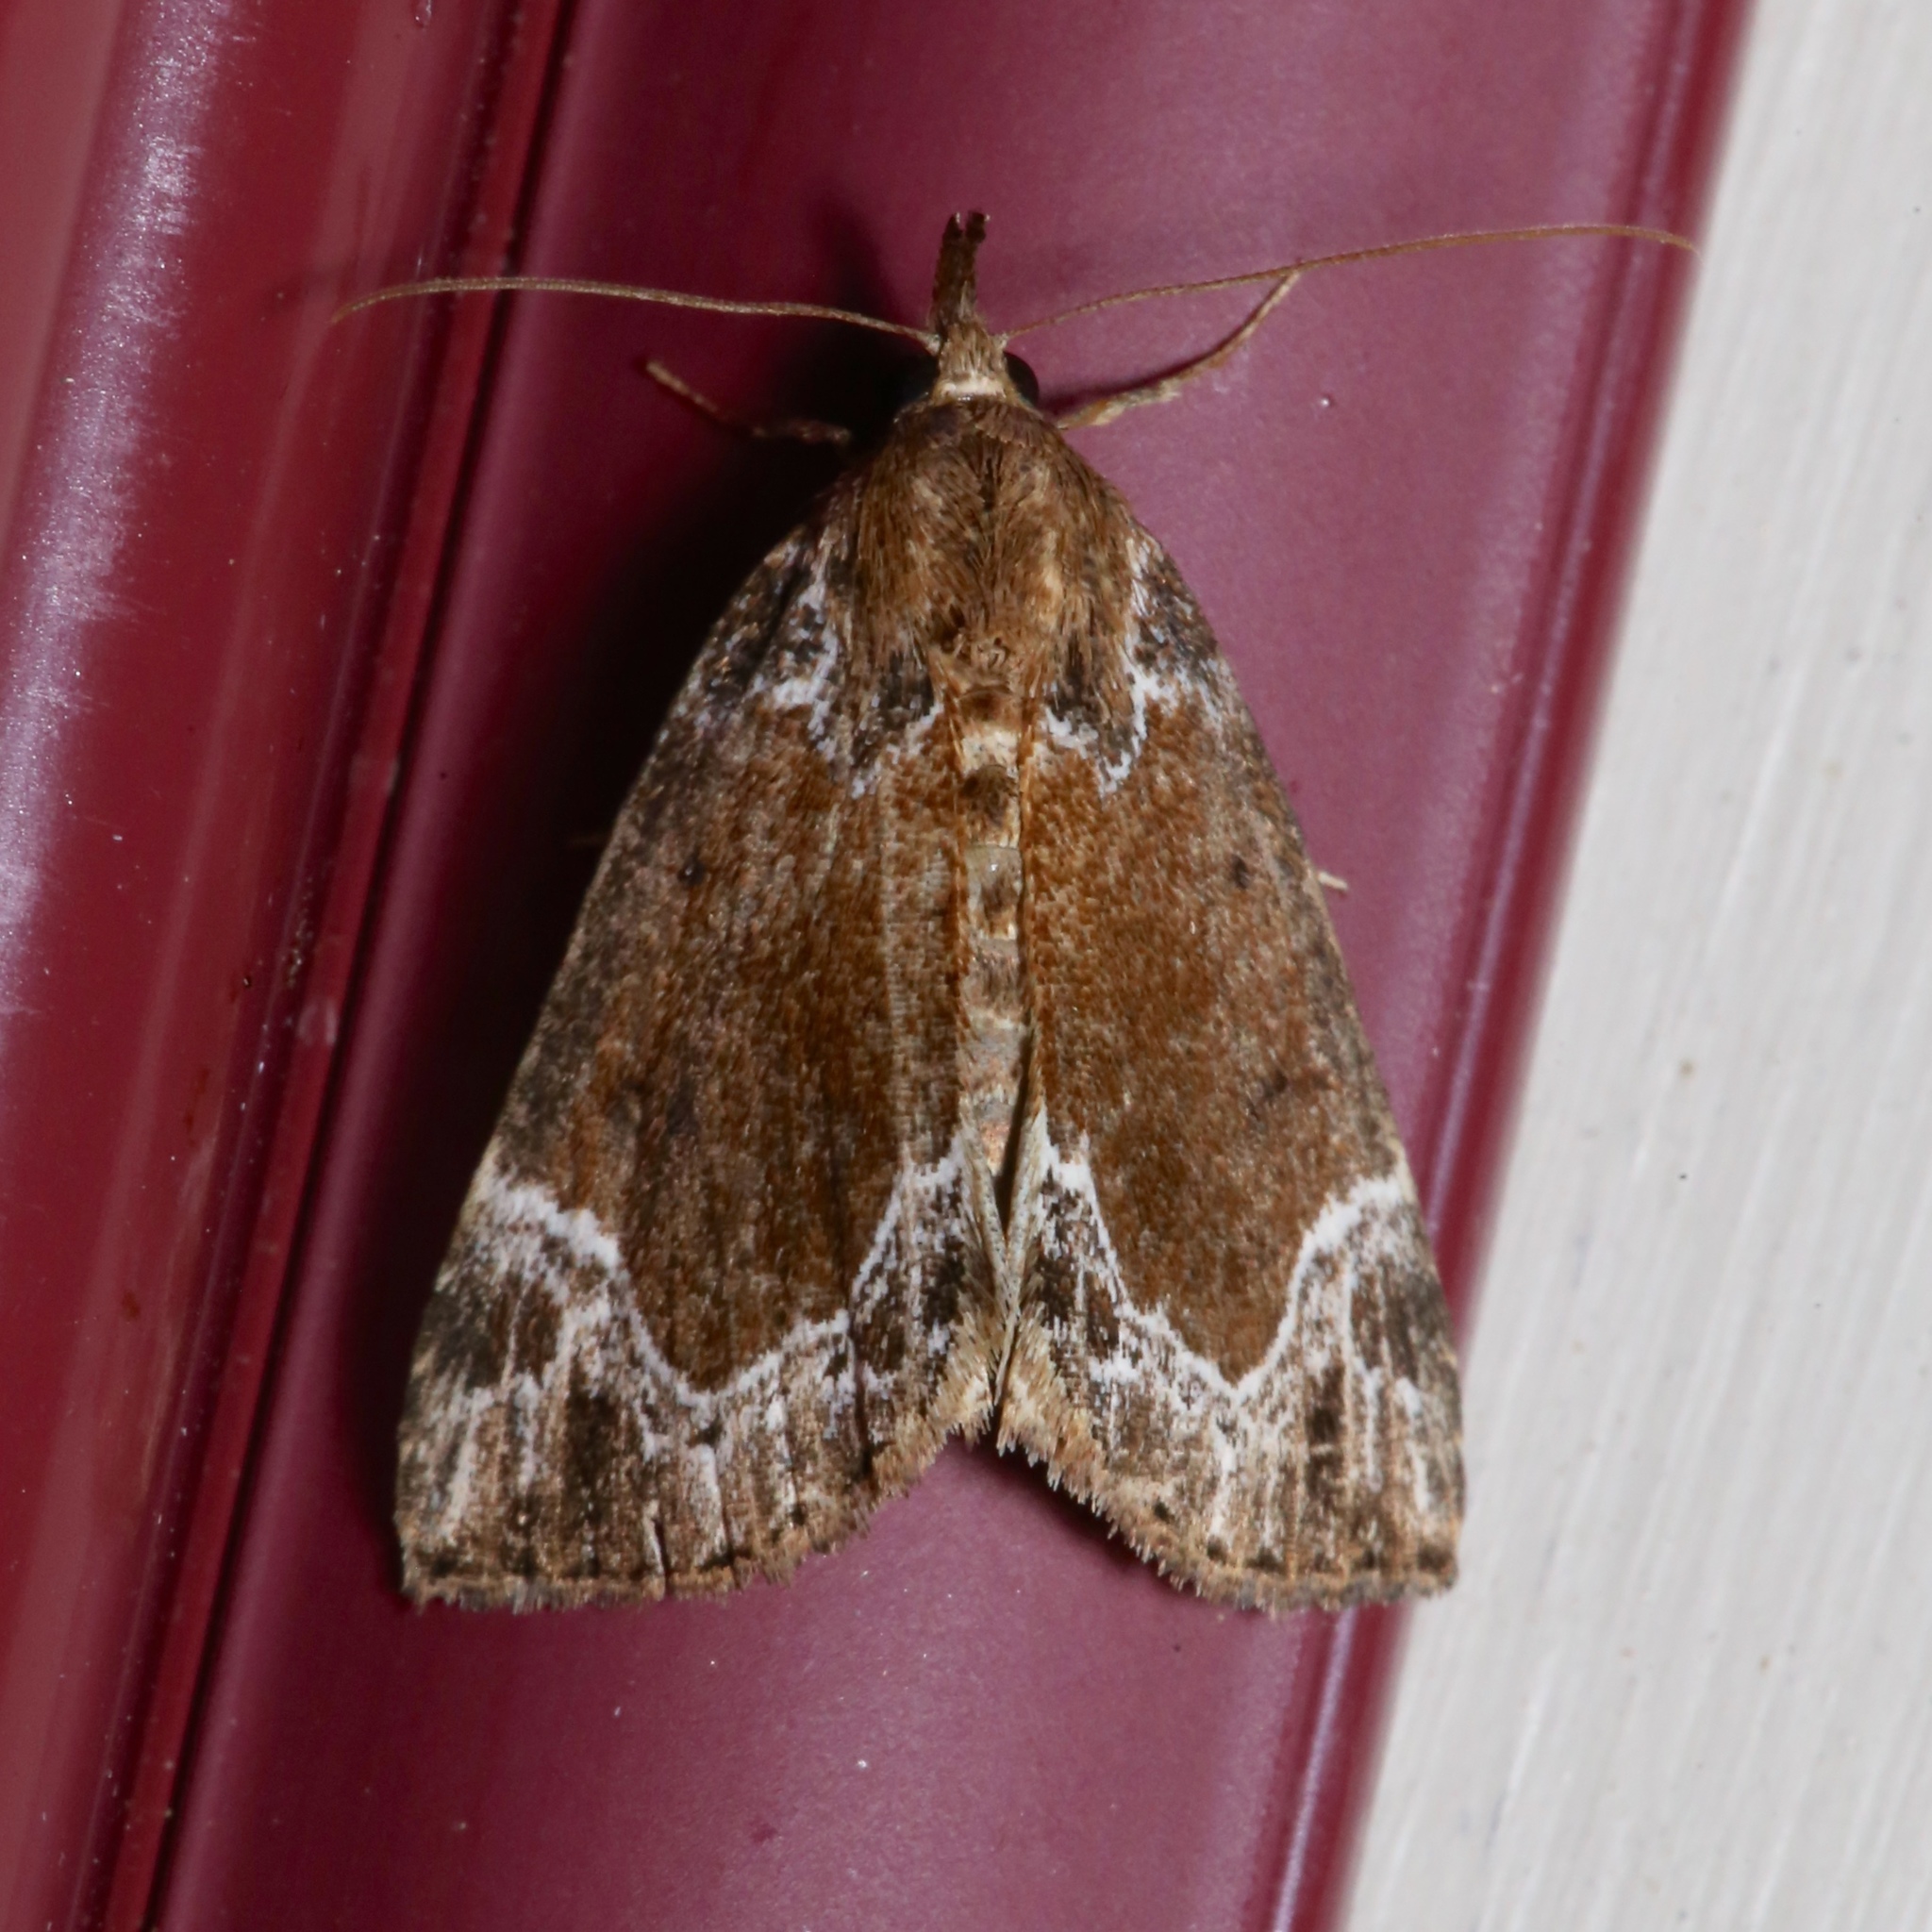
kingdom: Animalia
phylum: Arthropoda
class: Insecta
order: Lepidoptera
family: Erebidae
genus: Hypena
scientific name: Hypena abalienalis
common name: White-lined snout
